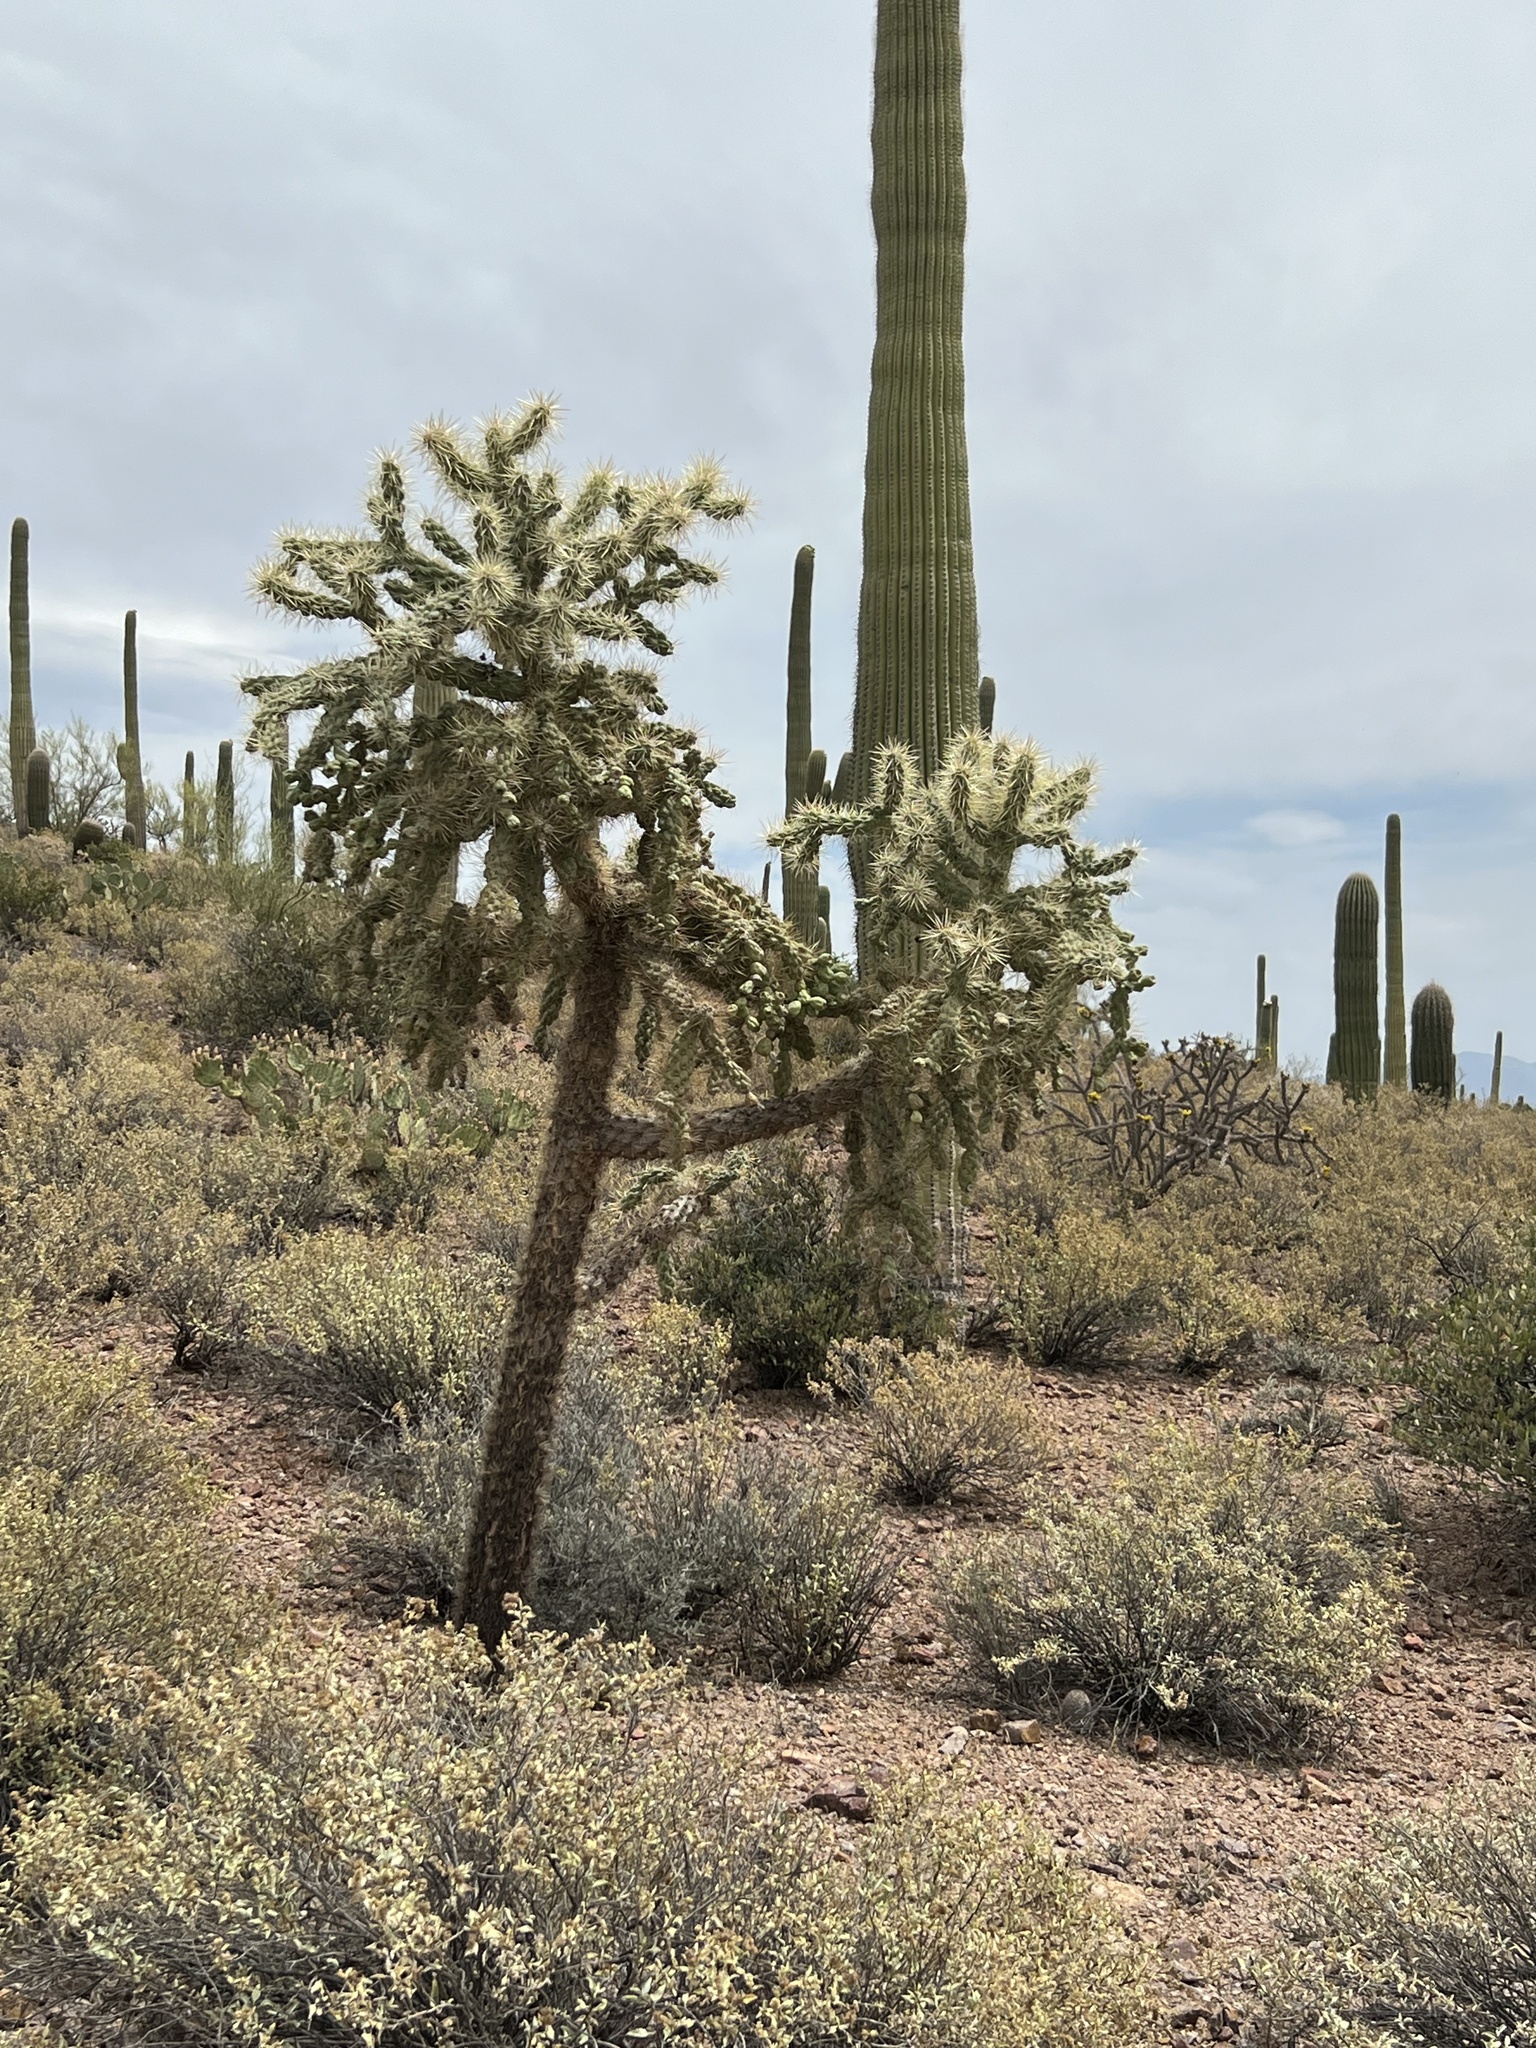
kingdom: Plantae
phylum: Tracheophyta
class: Magnoliopsida
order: Caryophyllales
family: Cactaceae
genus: Cylindropuntia
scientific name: Cylindropuntia fulgida
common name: Jumping cholla
